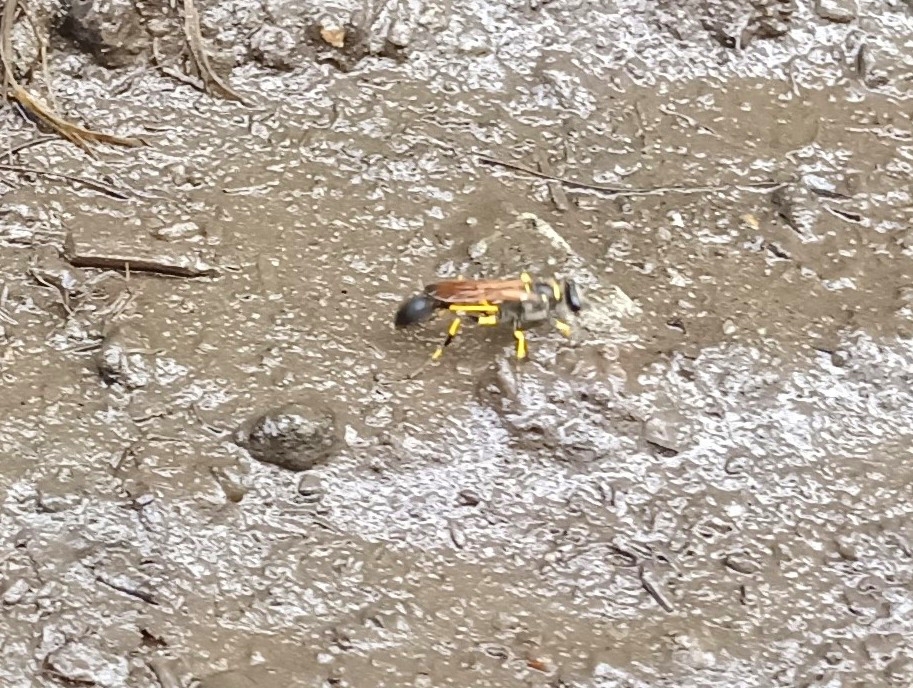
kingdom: Animalia
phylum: Arthropoda
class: Insecta
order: Hymenoptera
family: Sphecidae
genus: Sceliphron
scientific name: Sceliphron madraspatanum
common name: Mud dauber
